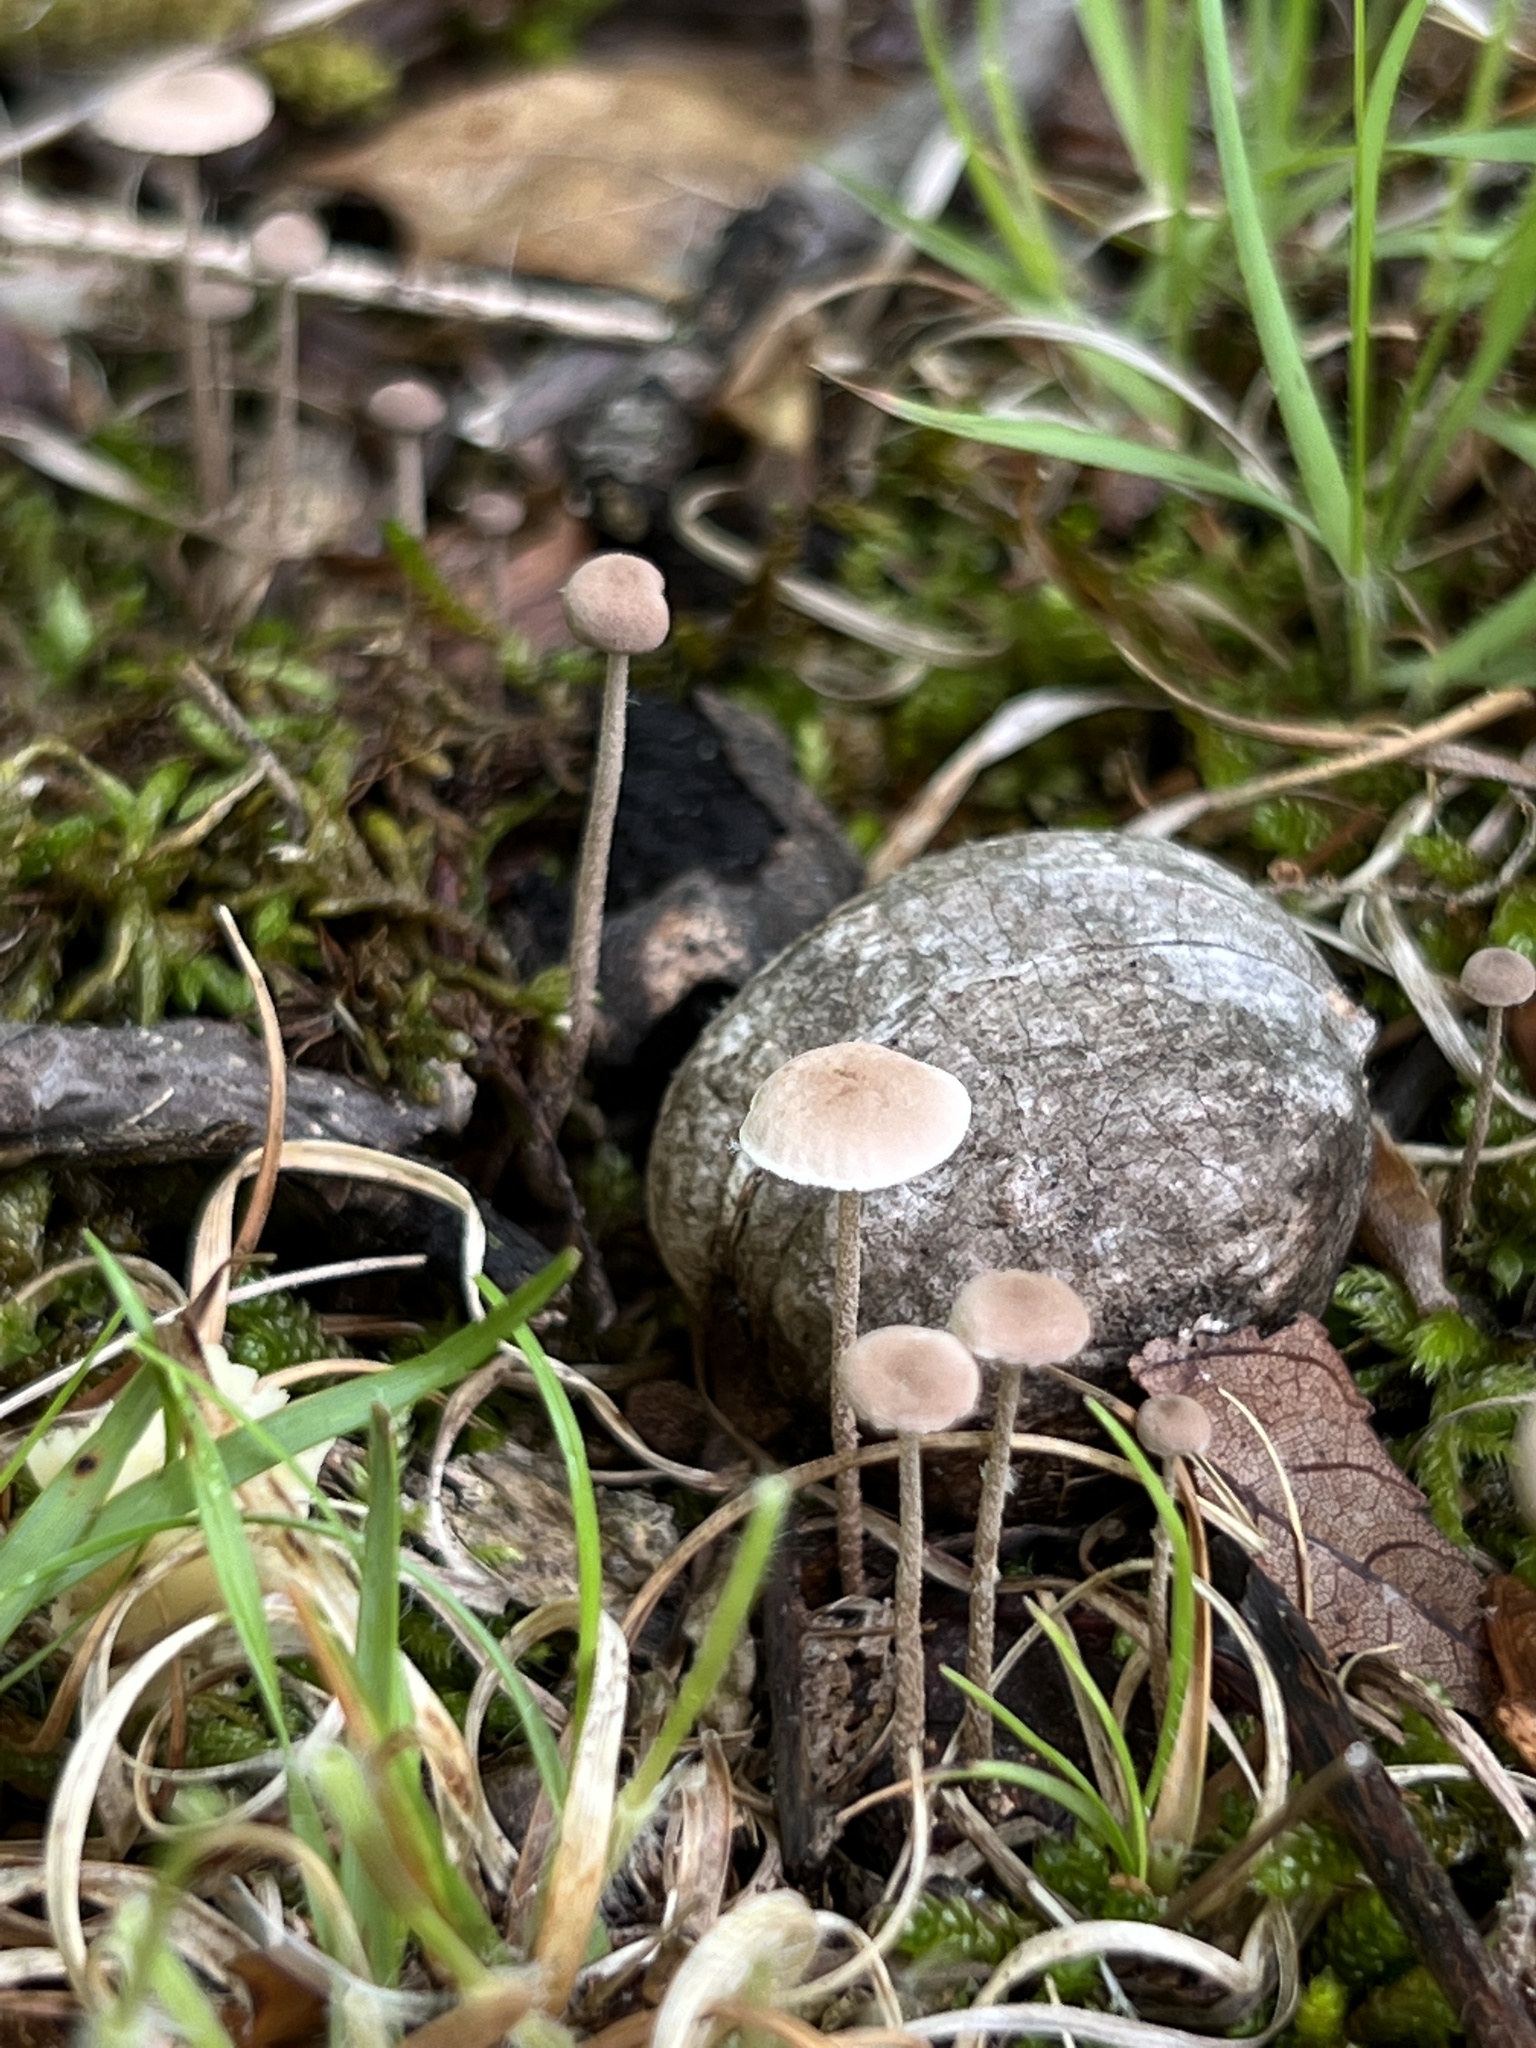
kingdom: Fungi
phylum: Basidiomycota
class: Agaricomycetes
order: Agaricales
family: Omphalotaceae
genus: Mycetinis
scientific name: Mycetinis opacus
